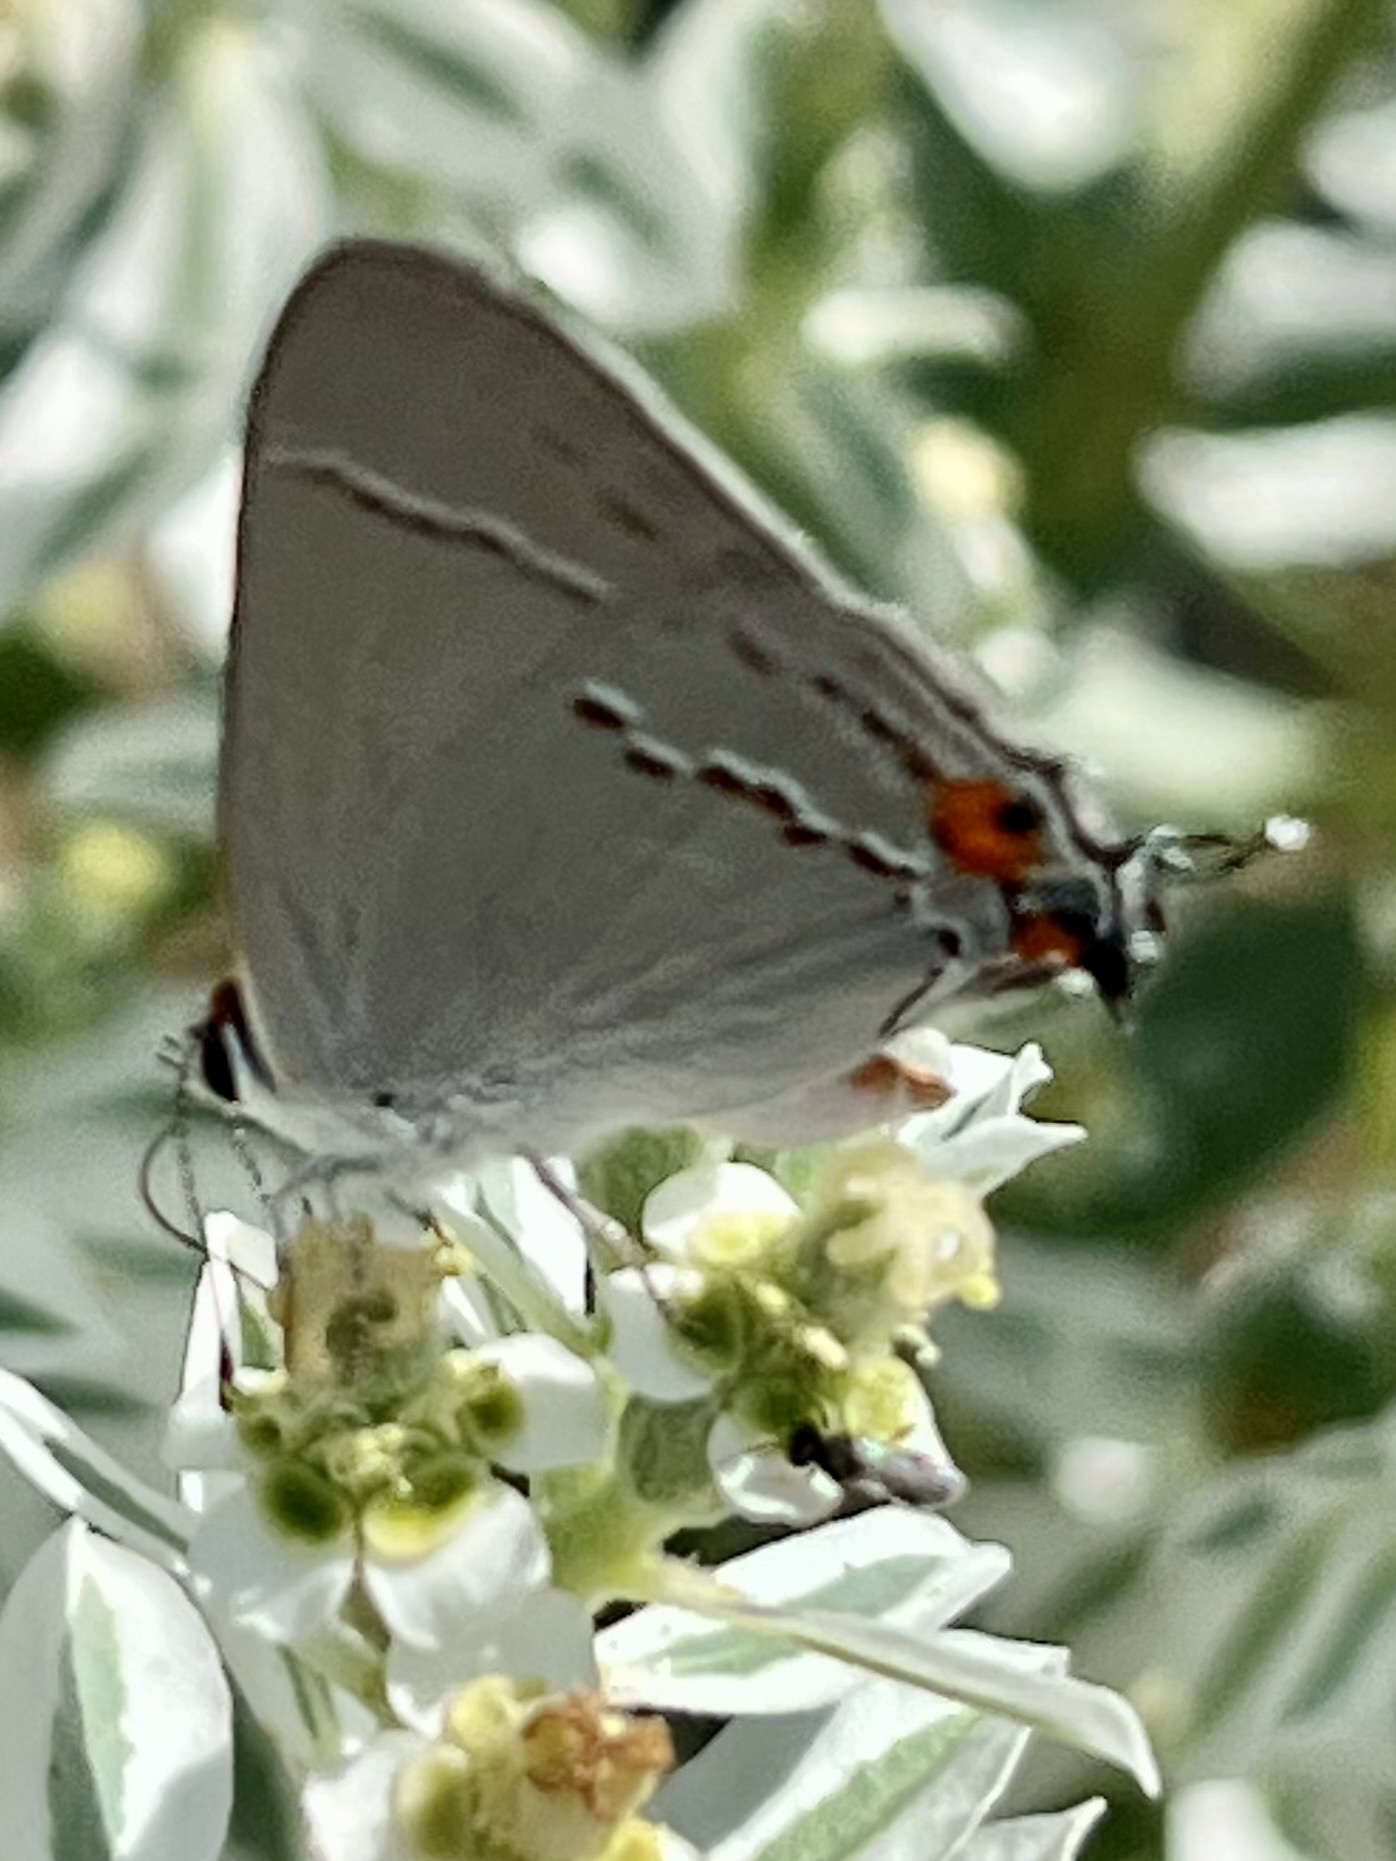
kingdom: Animalia
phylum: Arthropoda
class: Insecta
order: Lepidoptera
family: Lycaenidae
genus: Strymon
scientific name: Strymon melinus
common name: Gray hairstreak
